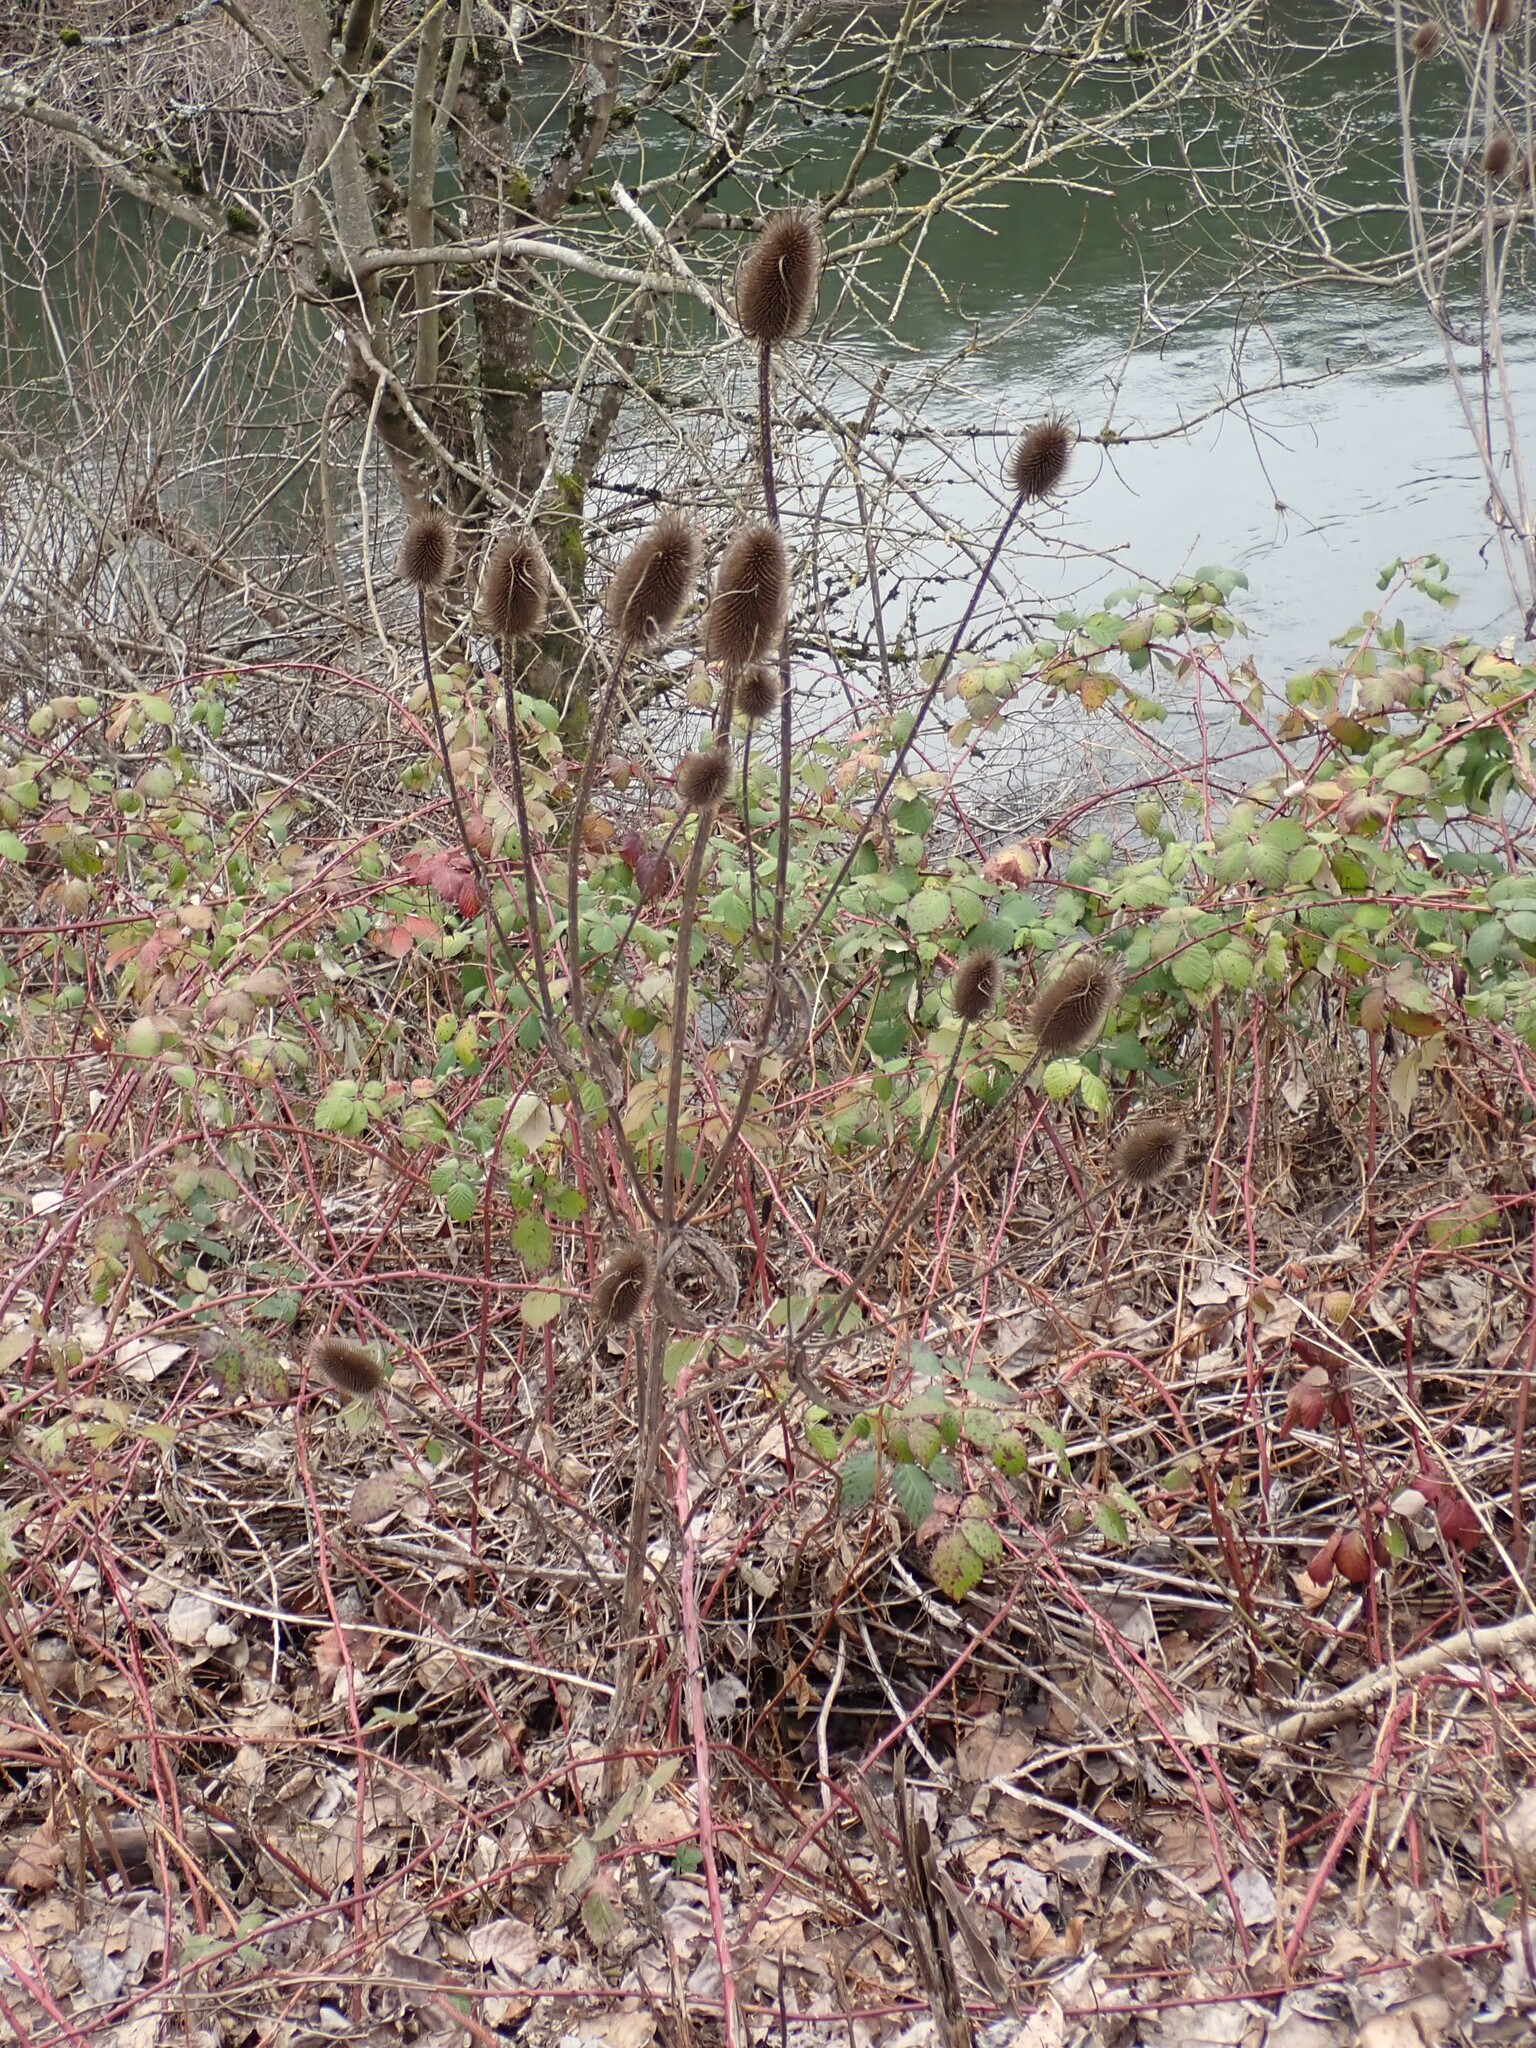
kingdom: Plantae
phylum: Tracheophyta
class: Magnoliopsida
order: Dipsacales
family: Caprifoliaceae
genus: Dipsacus
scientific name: Dipsacus fullonum
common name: Teasel
